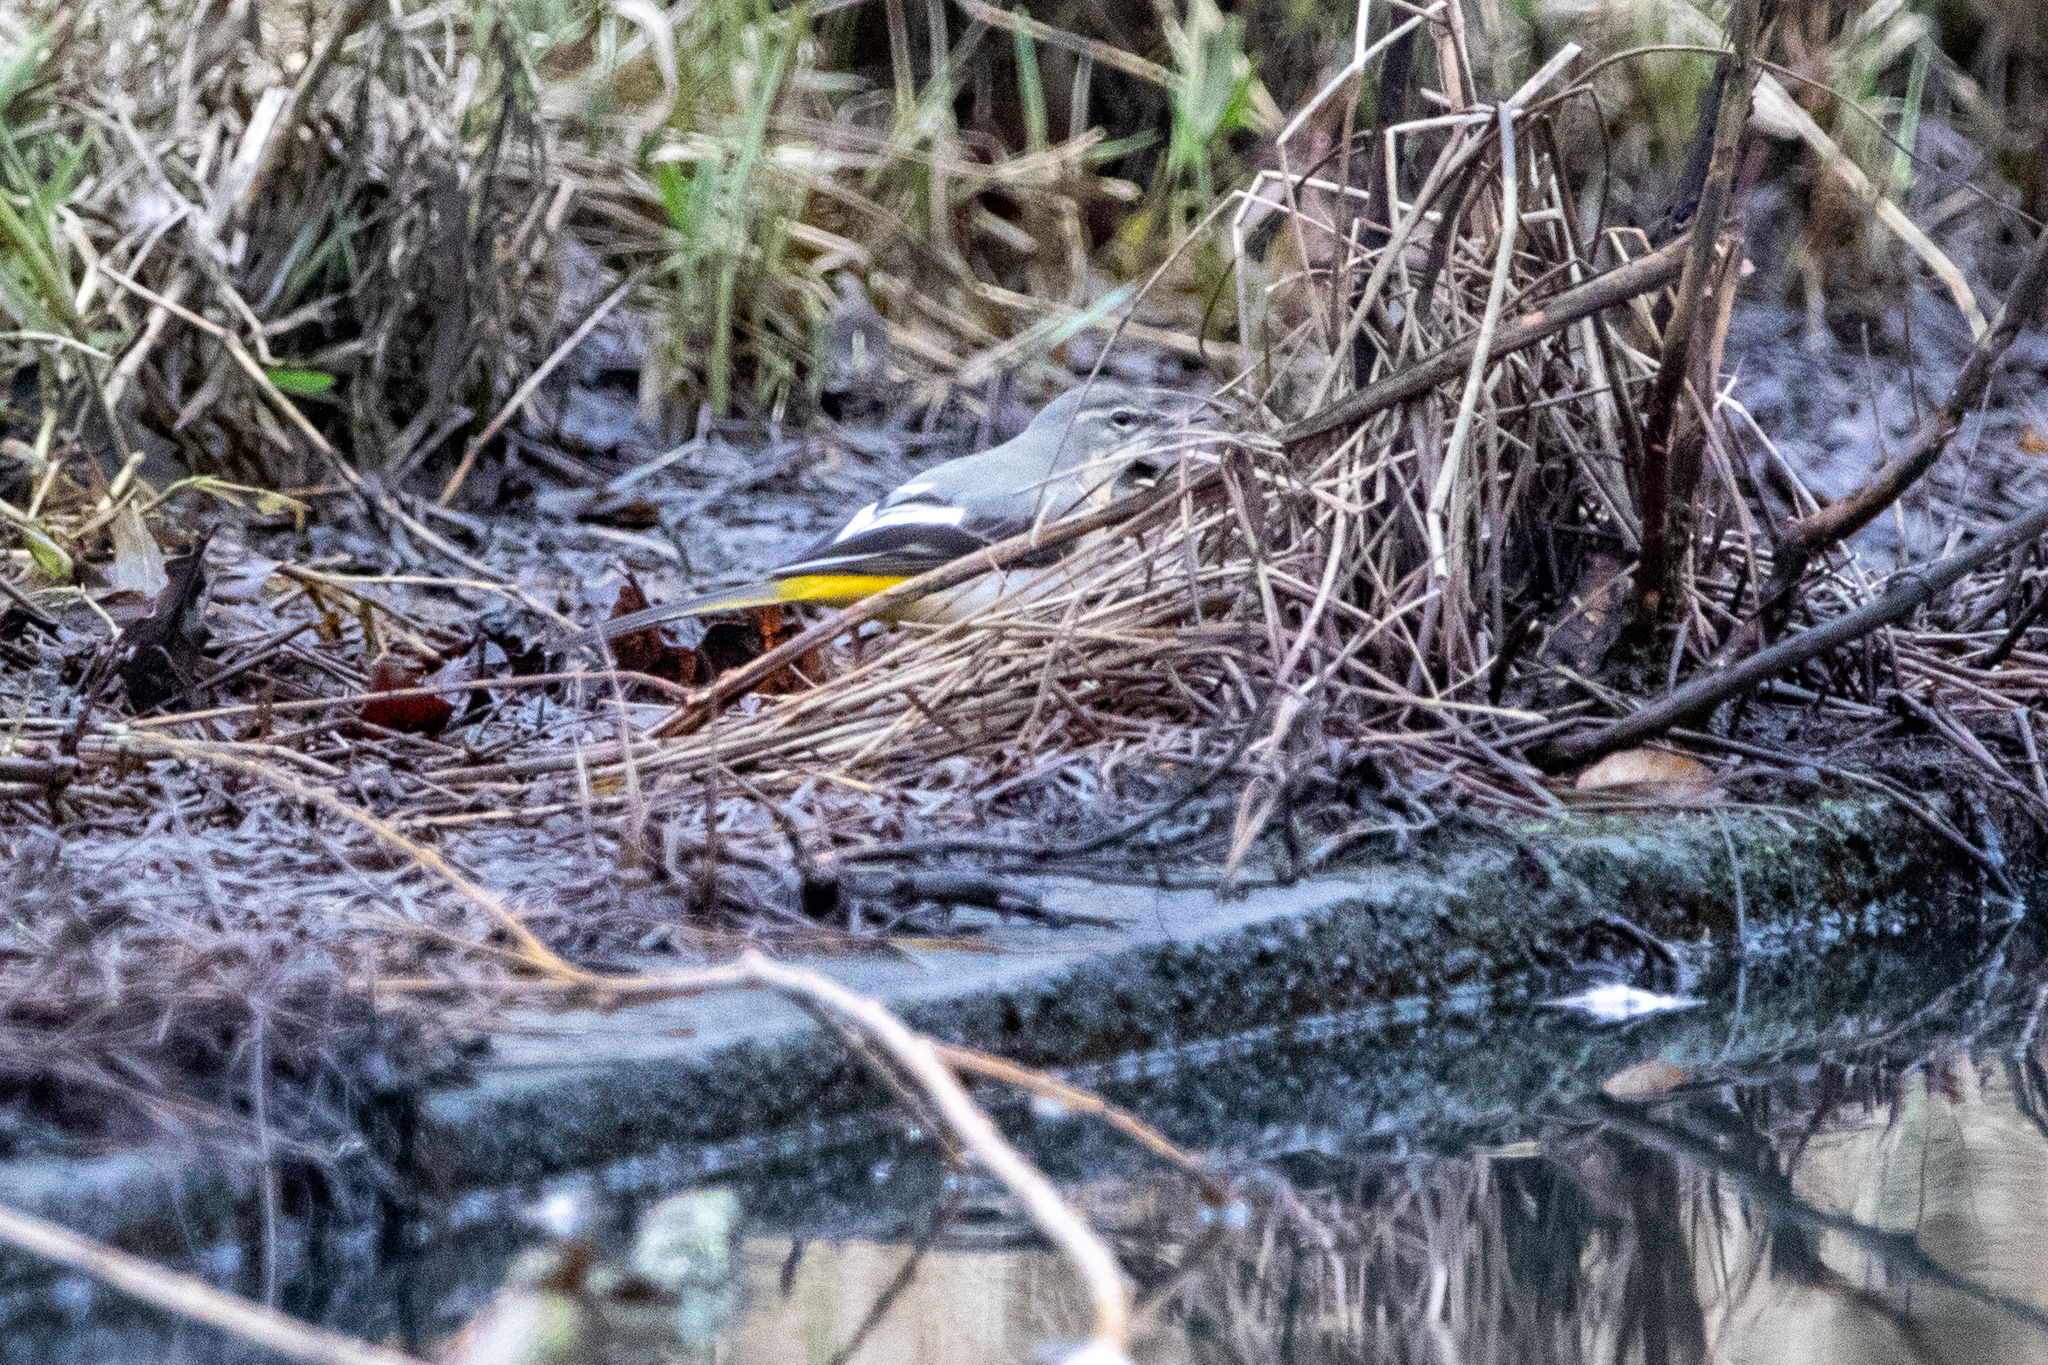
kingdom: Animalia
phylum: Chordata
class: Aves
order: Passeriformes
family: Motacillidae
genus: Motacilla
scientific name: Motacilla cinerea
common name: Grey wagtail
